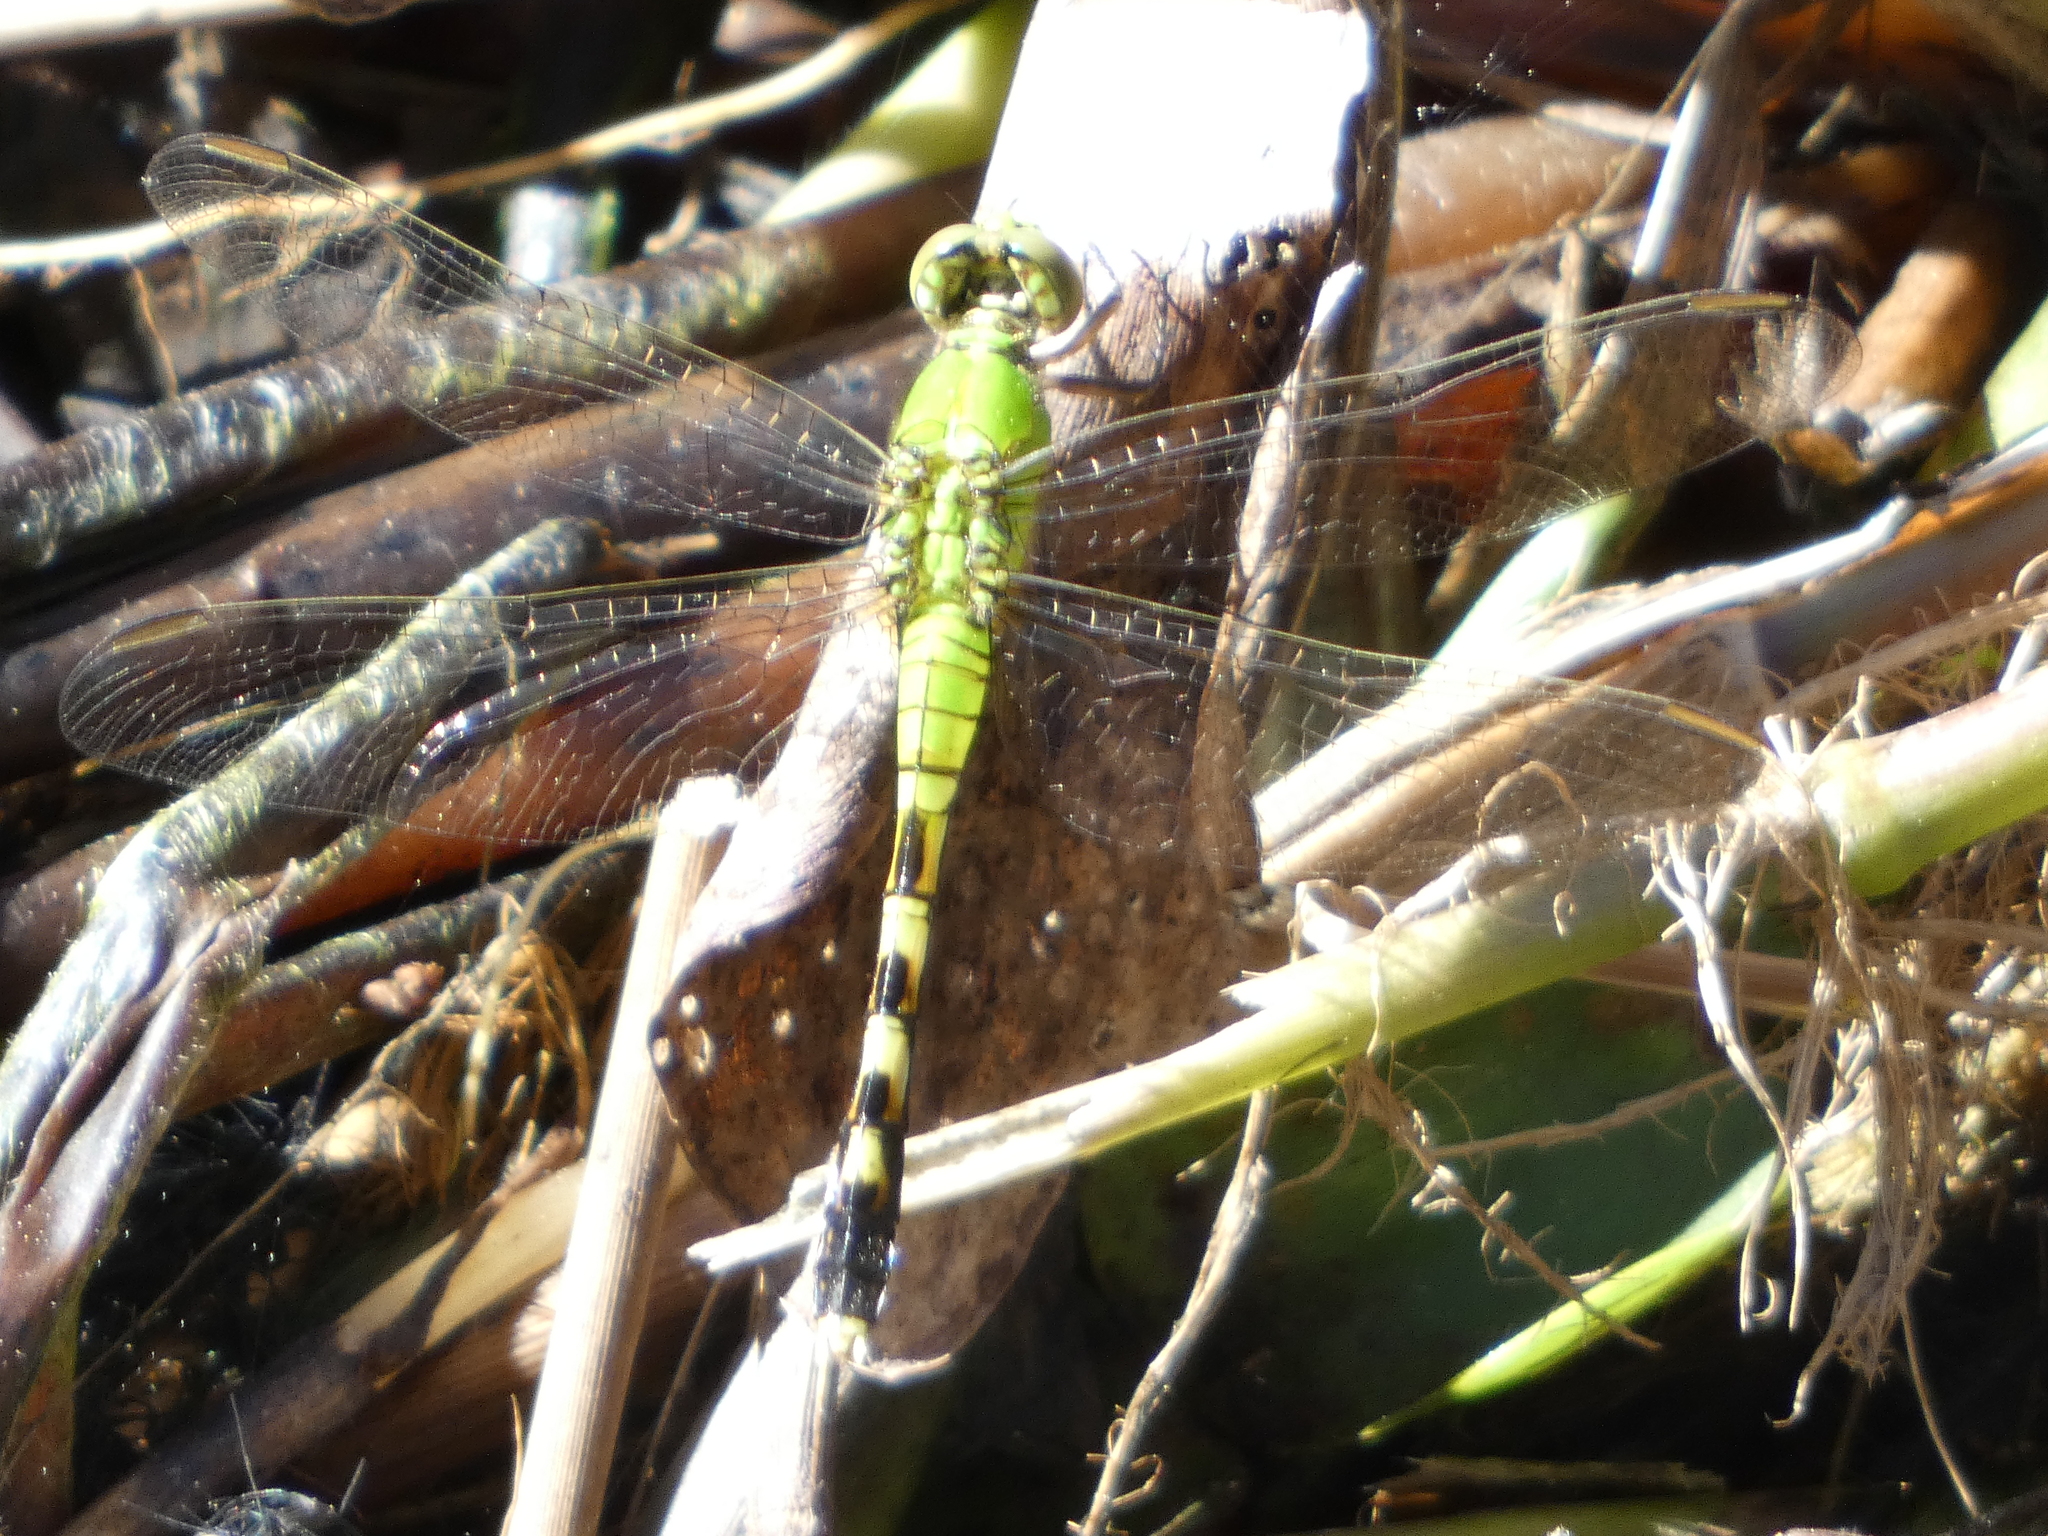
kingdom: Animalia
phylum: Arthropoda
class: Insecta
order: Odonata
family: Libellulidae
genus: Erythemis
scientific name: Erythemis simplicicollis
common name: Eastern pondhawk
